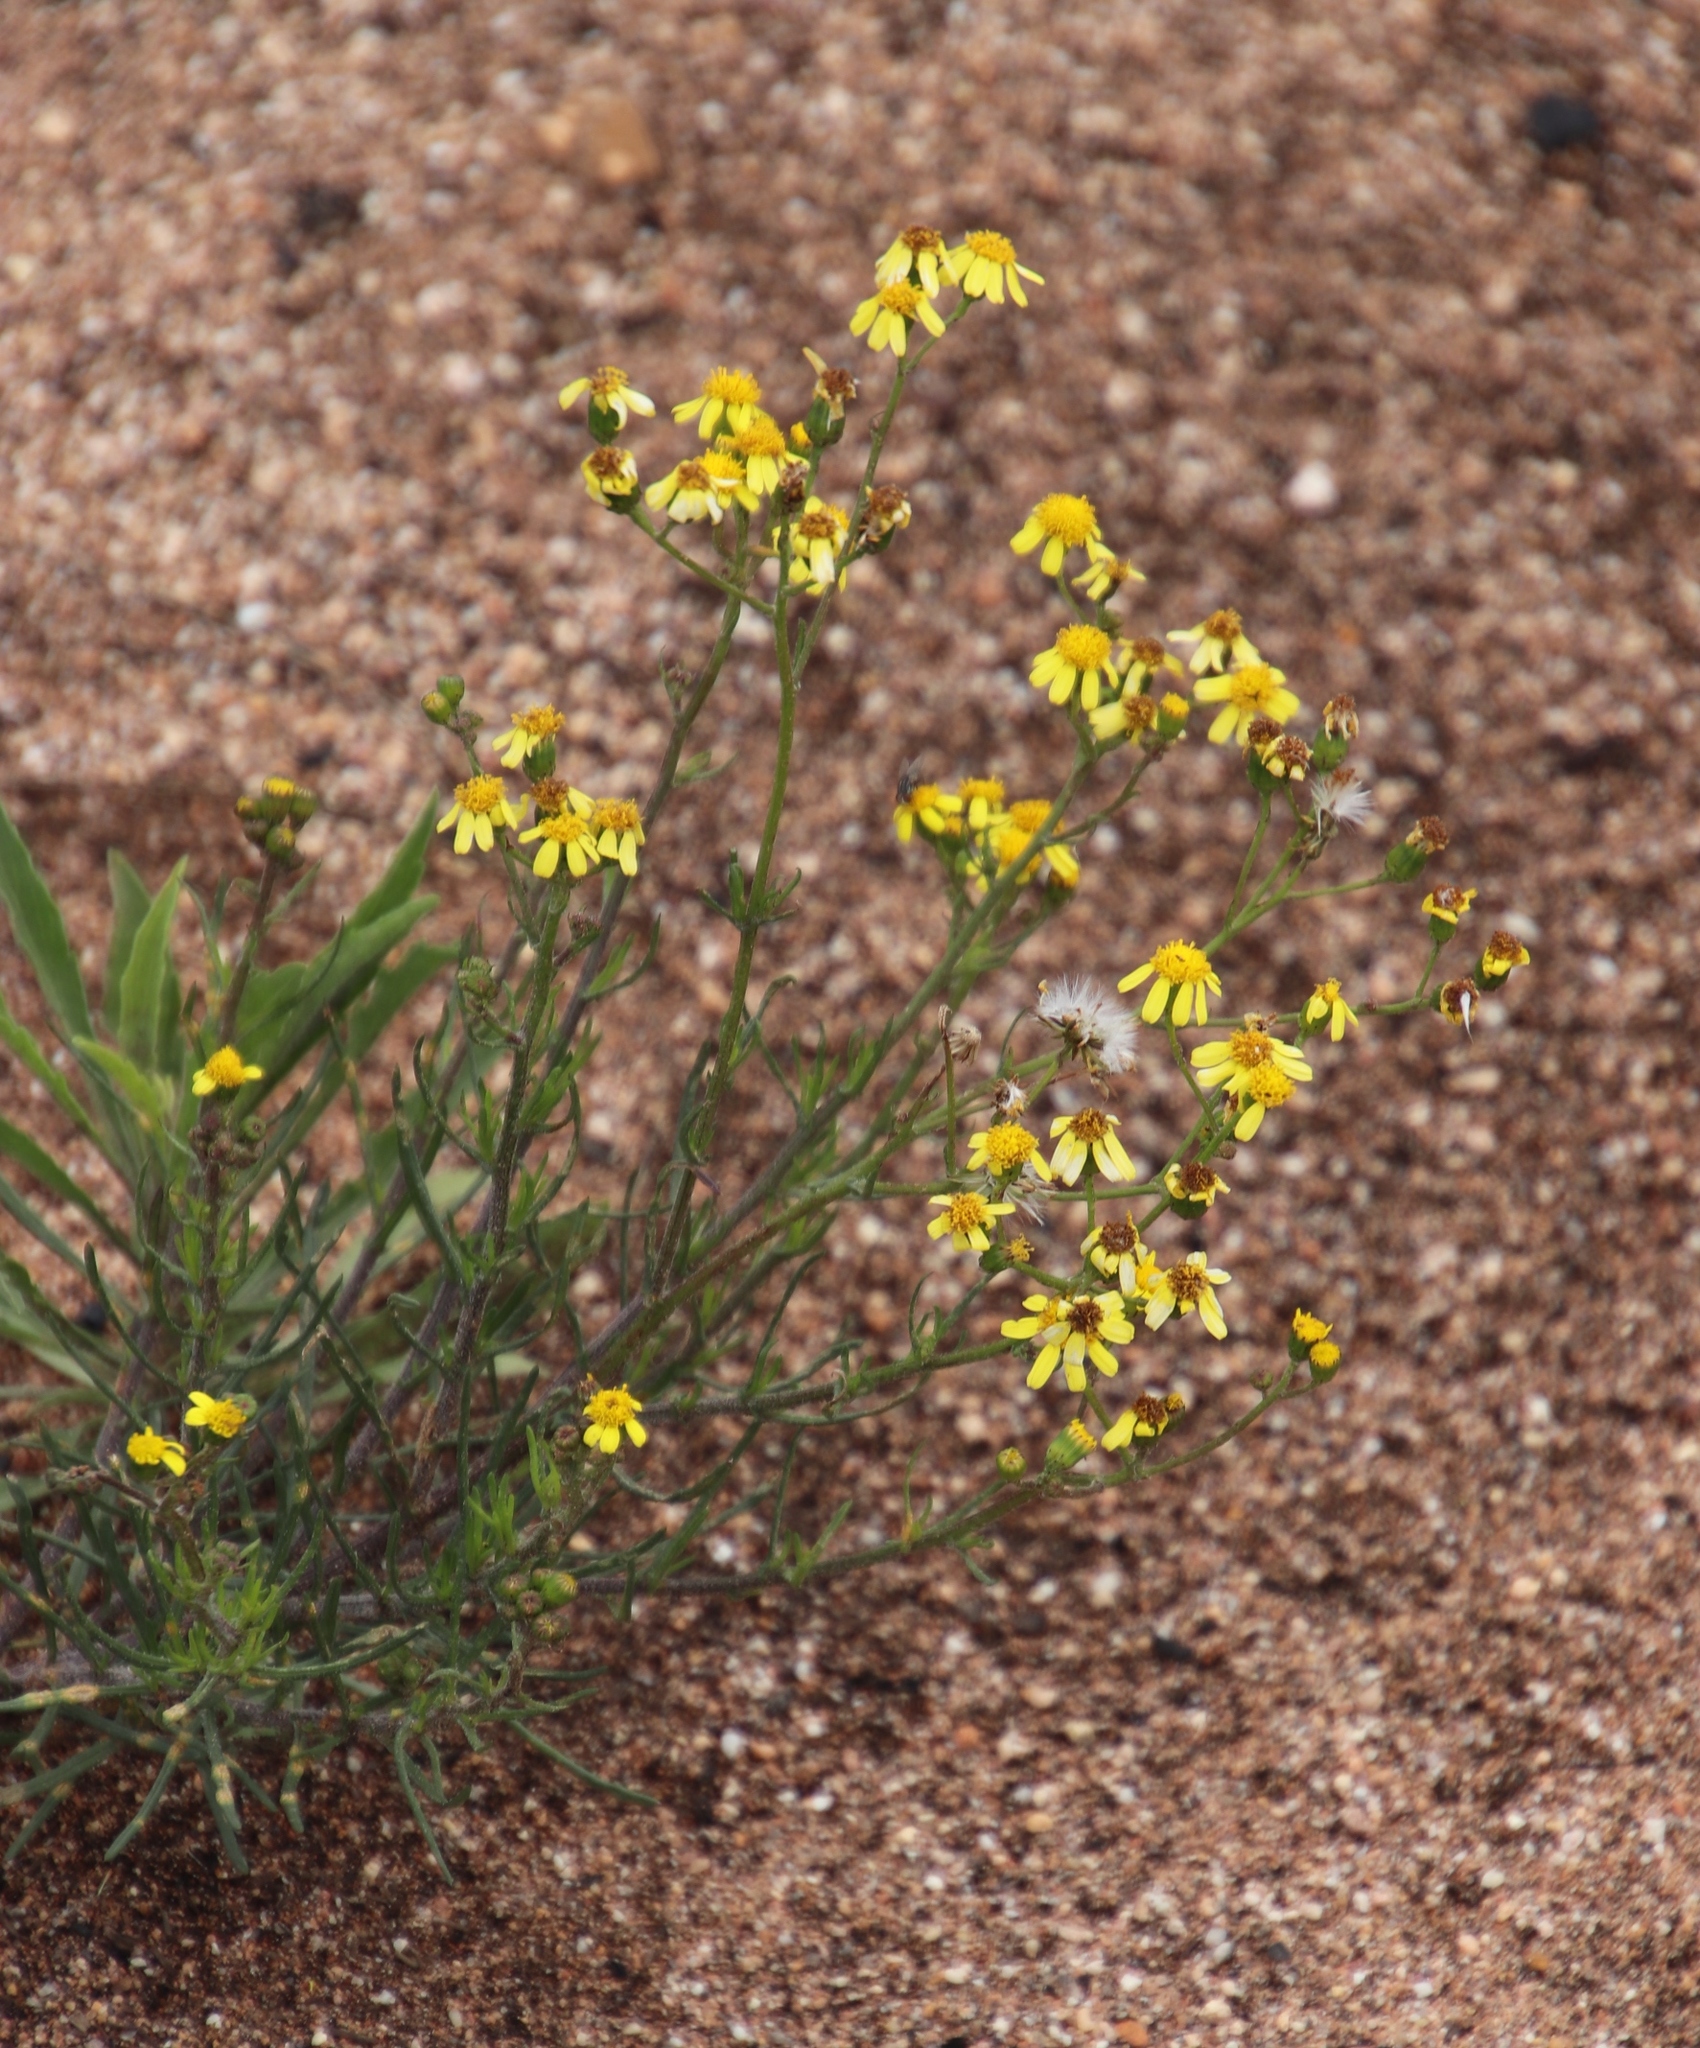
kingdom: Plantae
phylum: Tracheophyta
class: Magnoliopsida
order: Asterales
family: Asteraceae
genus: Senecio
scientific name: Senecio burchellii
